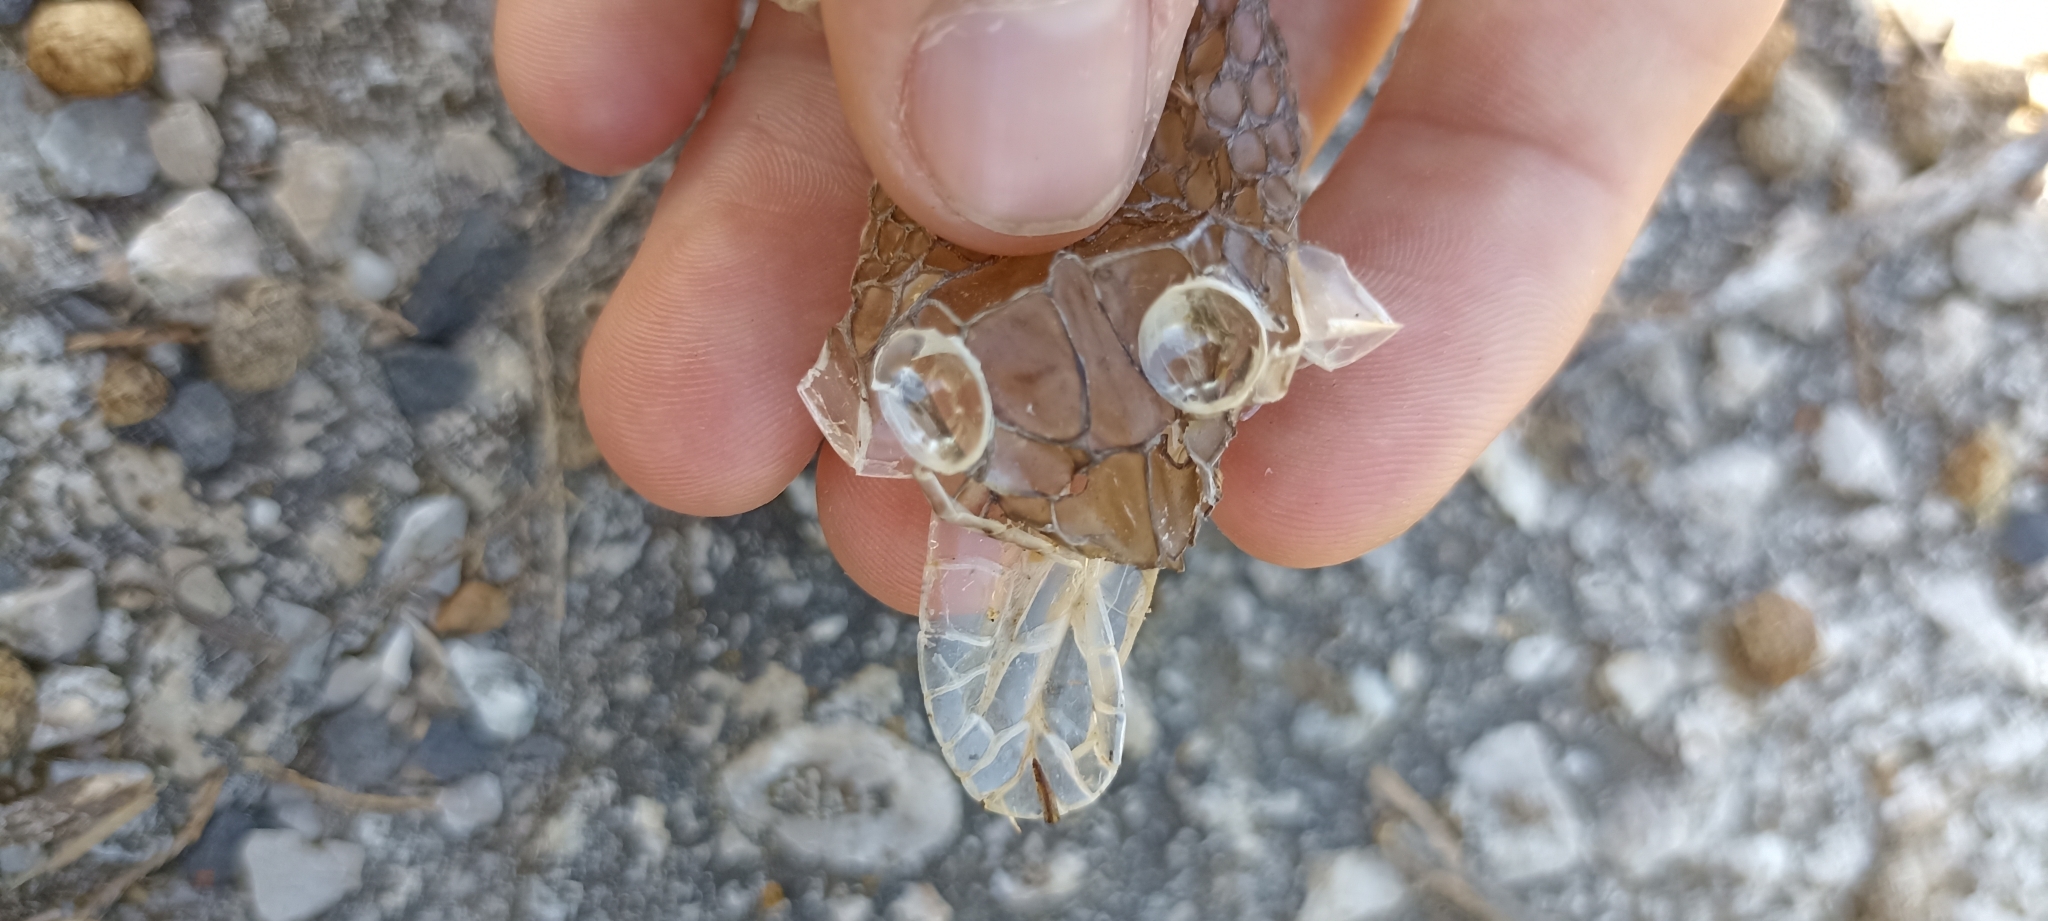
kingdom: Animalia
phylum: Chordata
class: Squamata
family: Psammophiidae
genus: Malpolon
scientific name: Malpolon monspessulanus
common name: Montpellier snake
